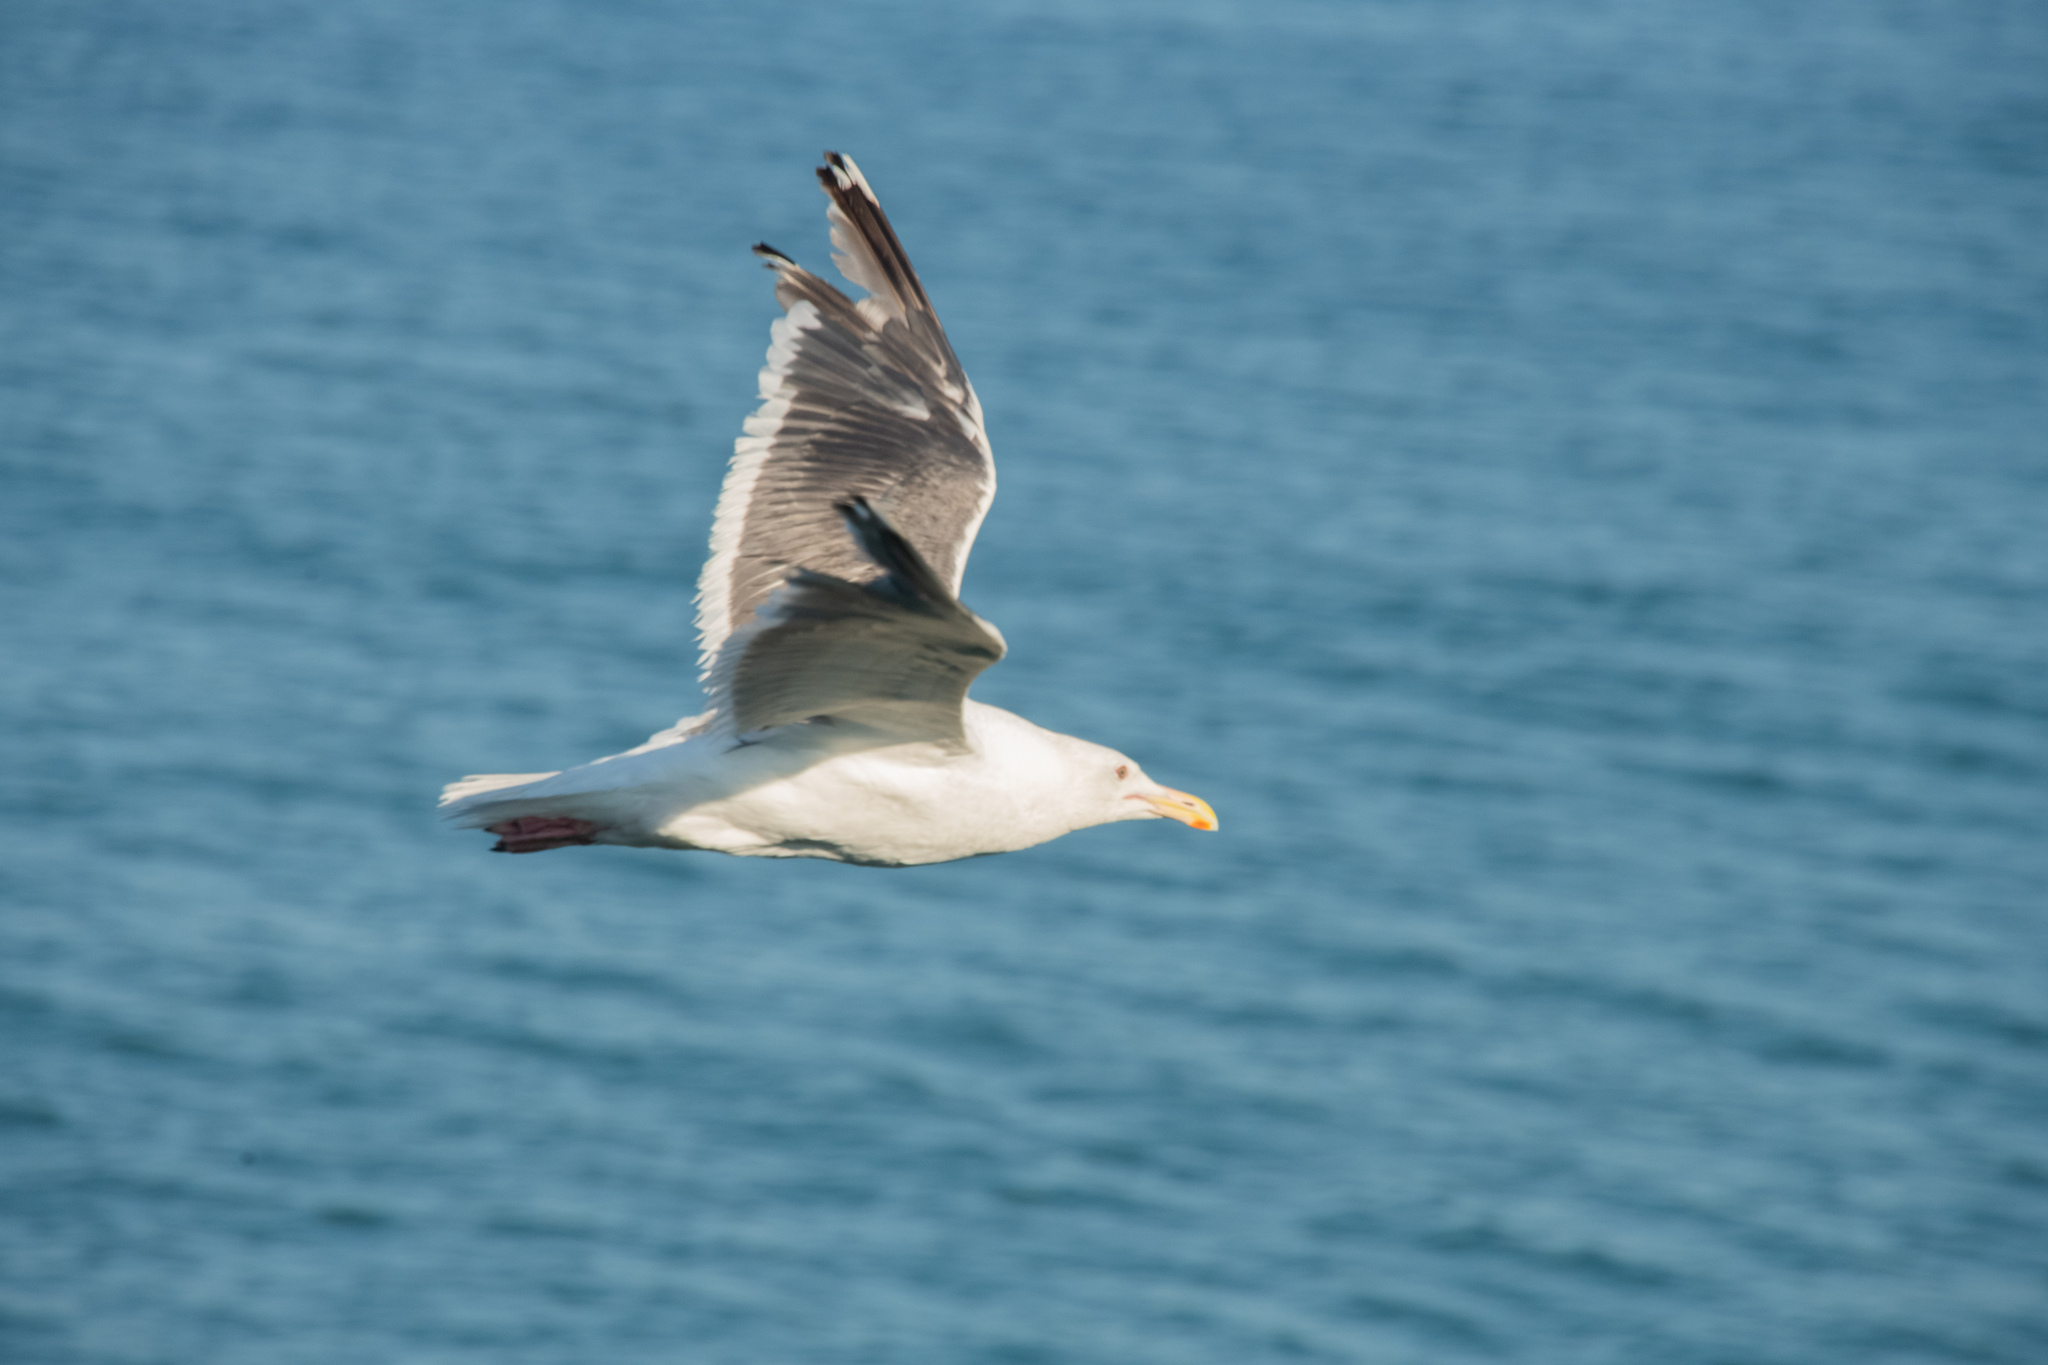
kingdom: Animalia
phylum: Chordata
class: Aves
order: Charadriiformes
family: Laridae
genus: Larus
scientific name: Larus schistisagus
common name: Slaty-backed gull
